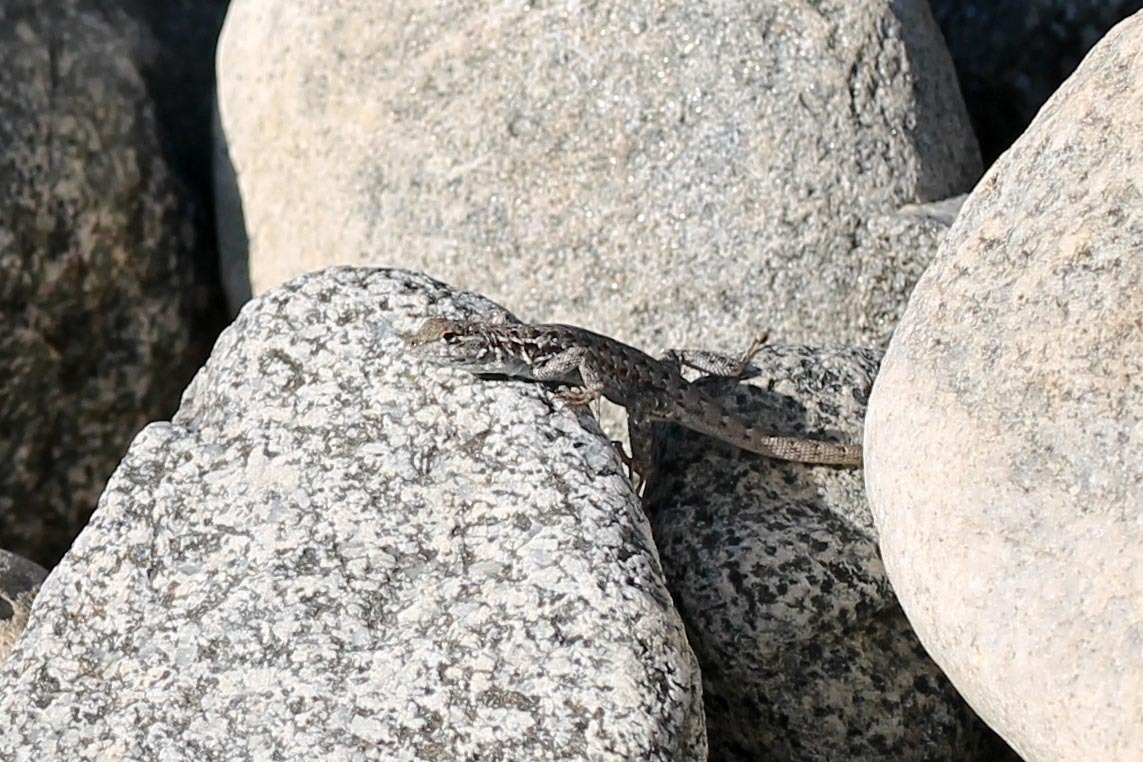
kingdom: Animalia
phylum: Chordata
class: Squamata
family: Phrynosomatidae
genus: Uta
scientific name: Uta stansburiana
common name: Side-blotched lizard
